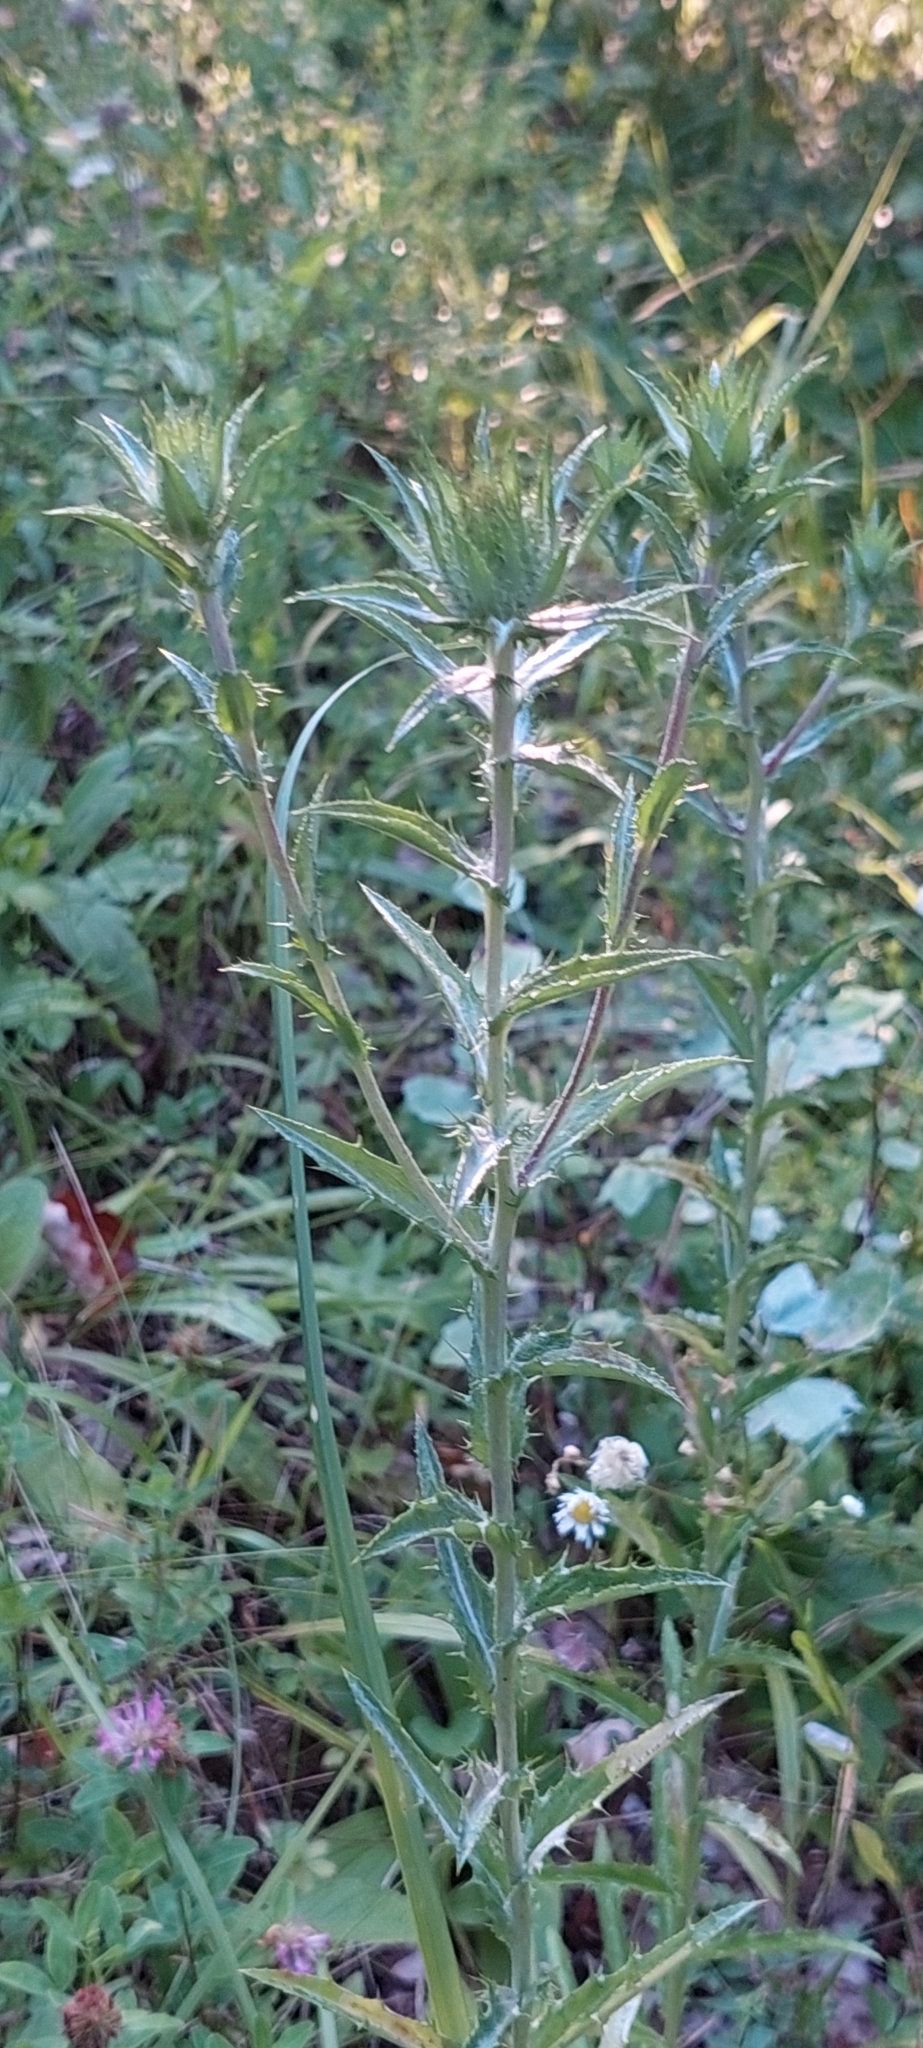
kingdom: Plantae
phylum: Tracheophyta
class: Magnoliopsida
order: Asterales
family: Asteraceae
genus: Carlina
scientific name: Carlina biebersteinii
